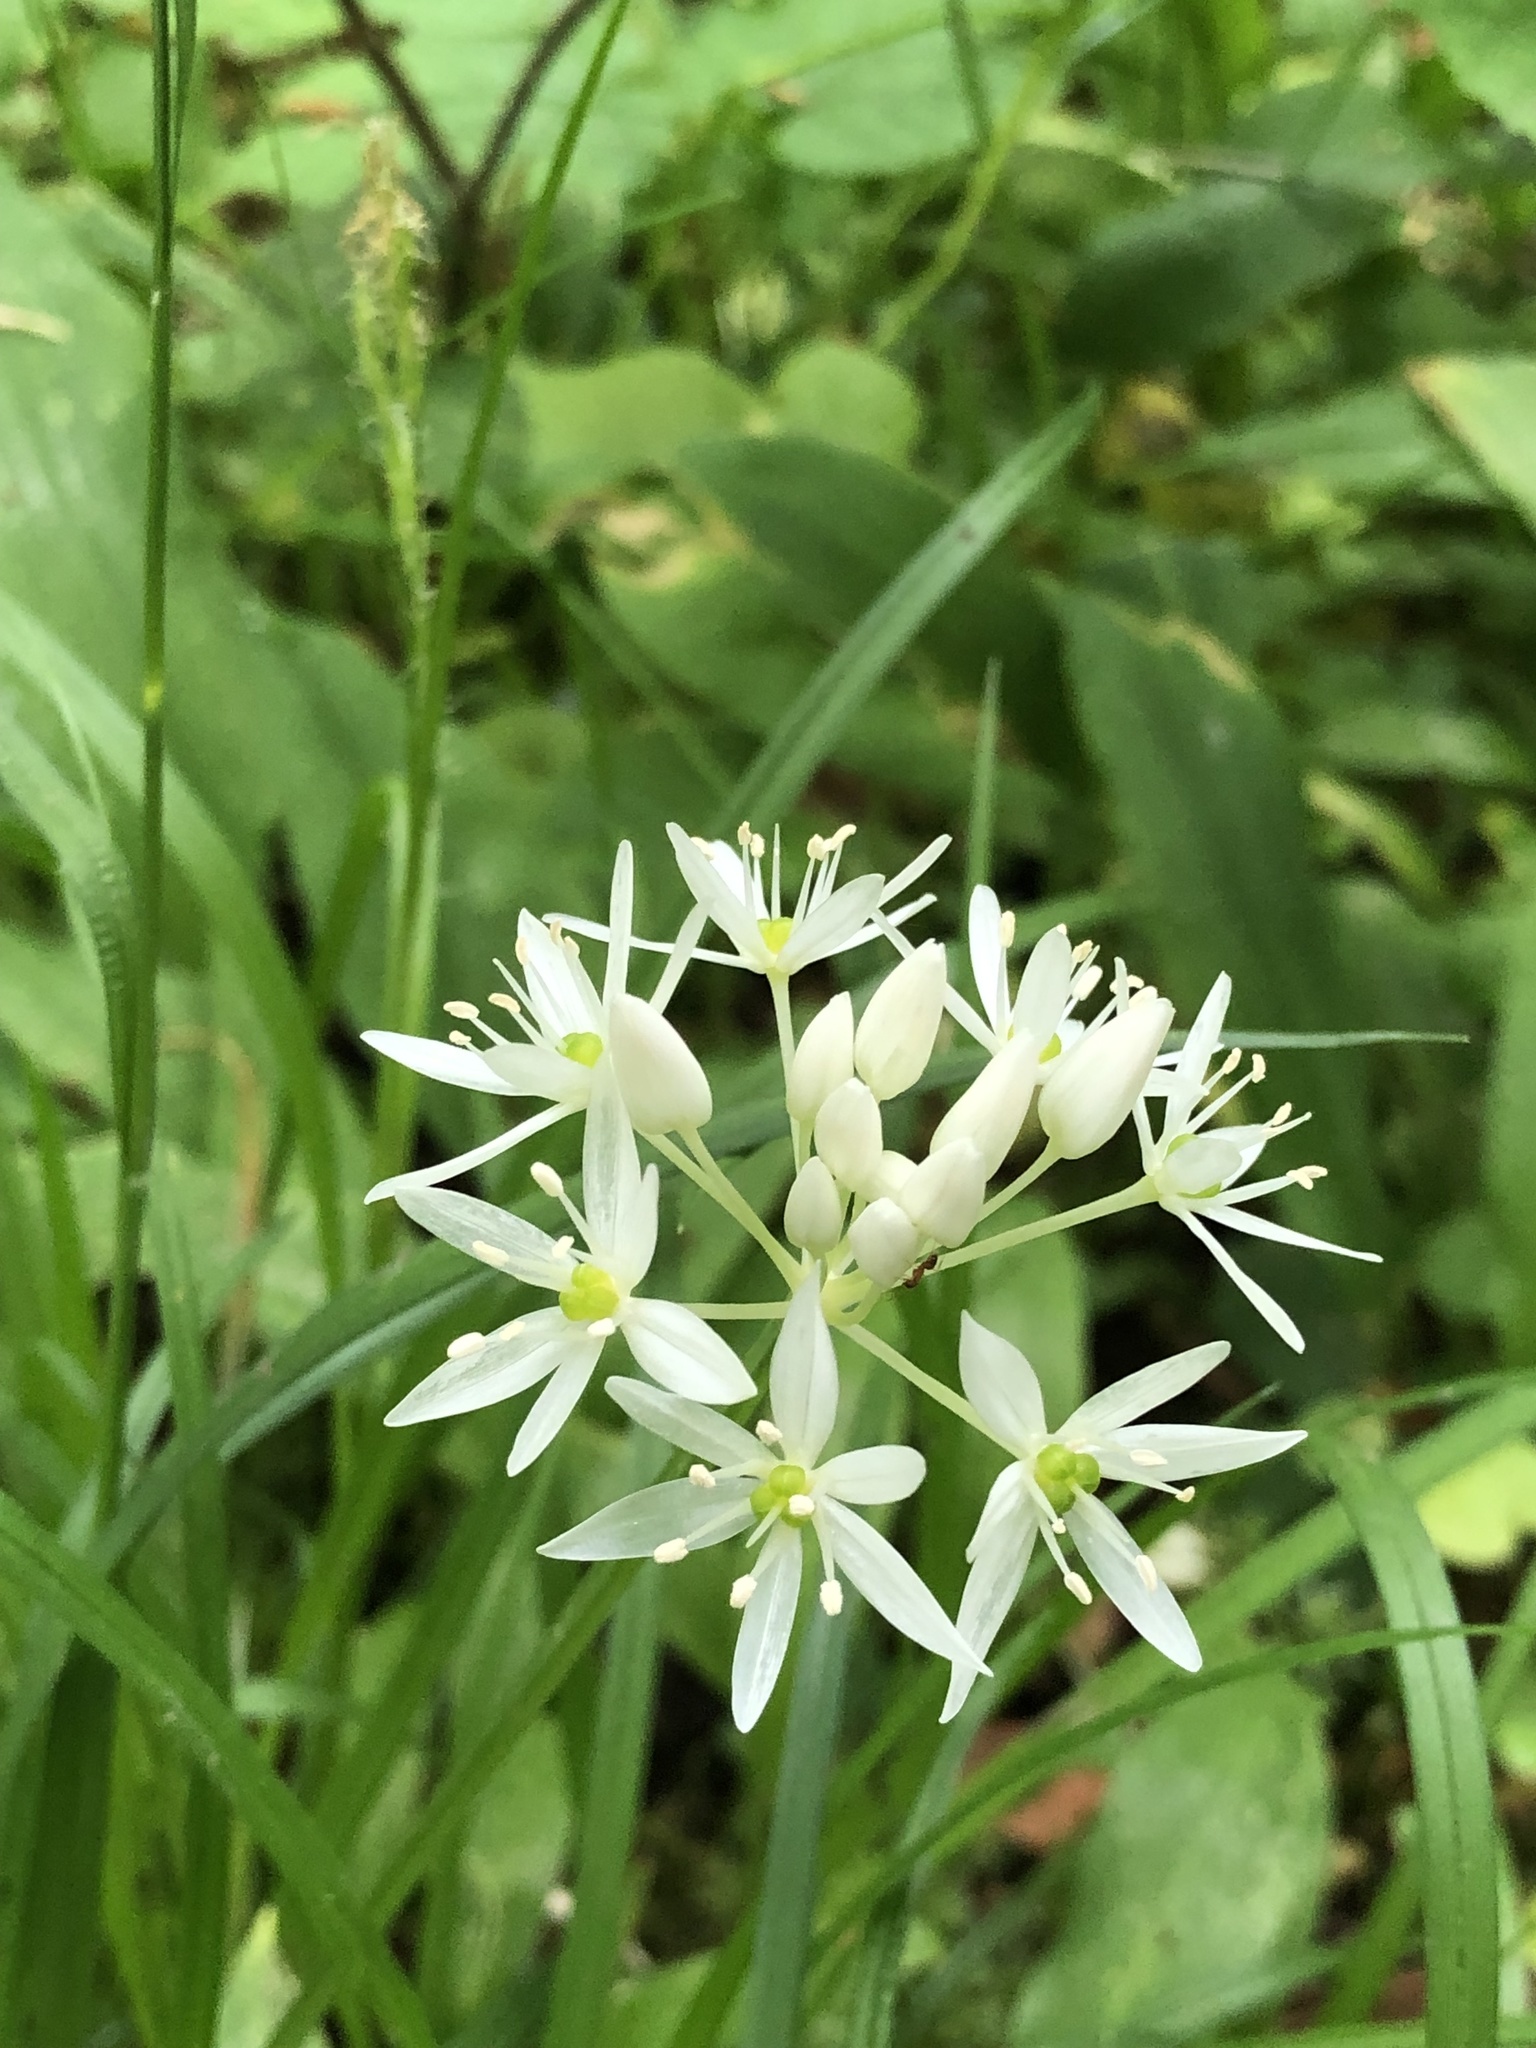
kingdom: Plantae
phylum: Tracheophyta
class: Liliopsida
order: Asparagales
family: Amaryllidaceae
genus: Allium
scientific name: Allium ursinum
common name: Ramsons
